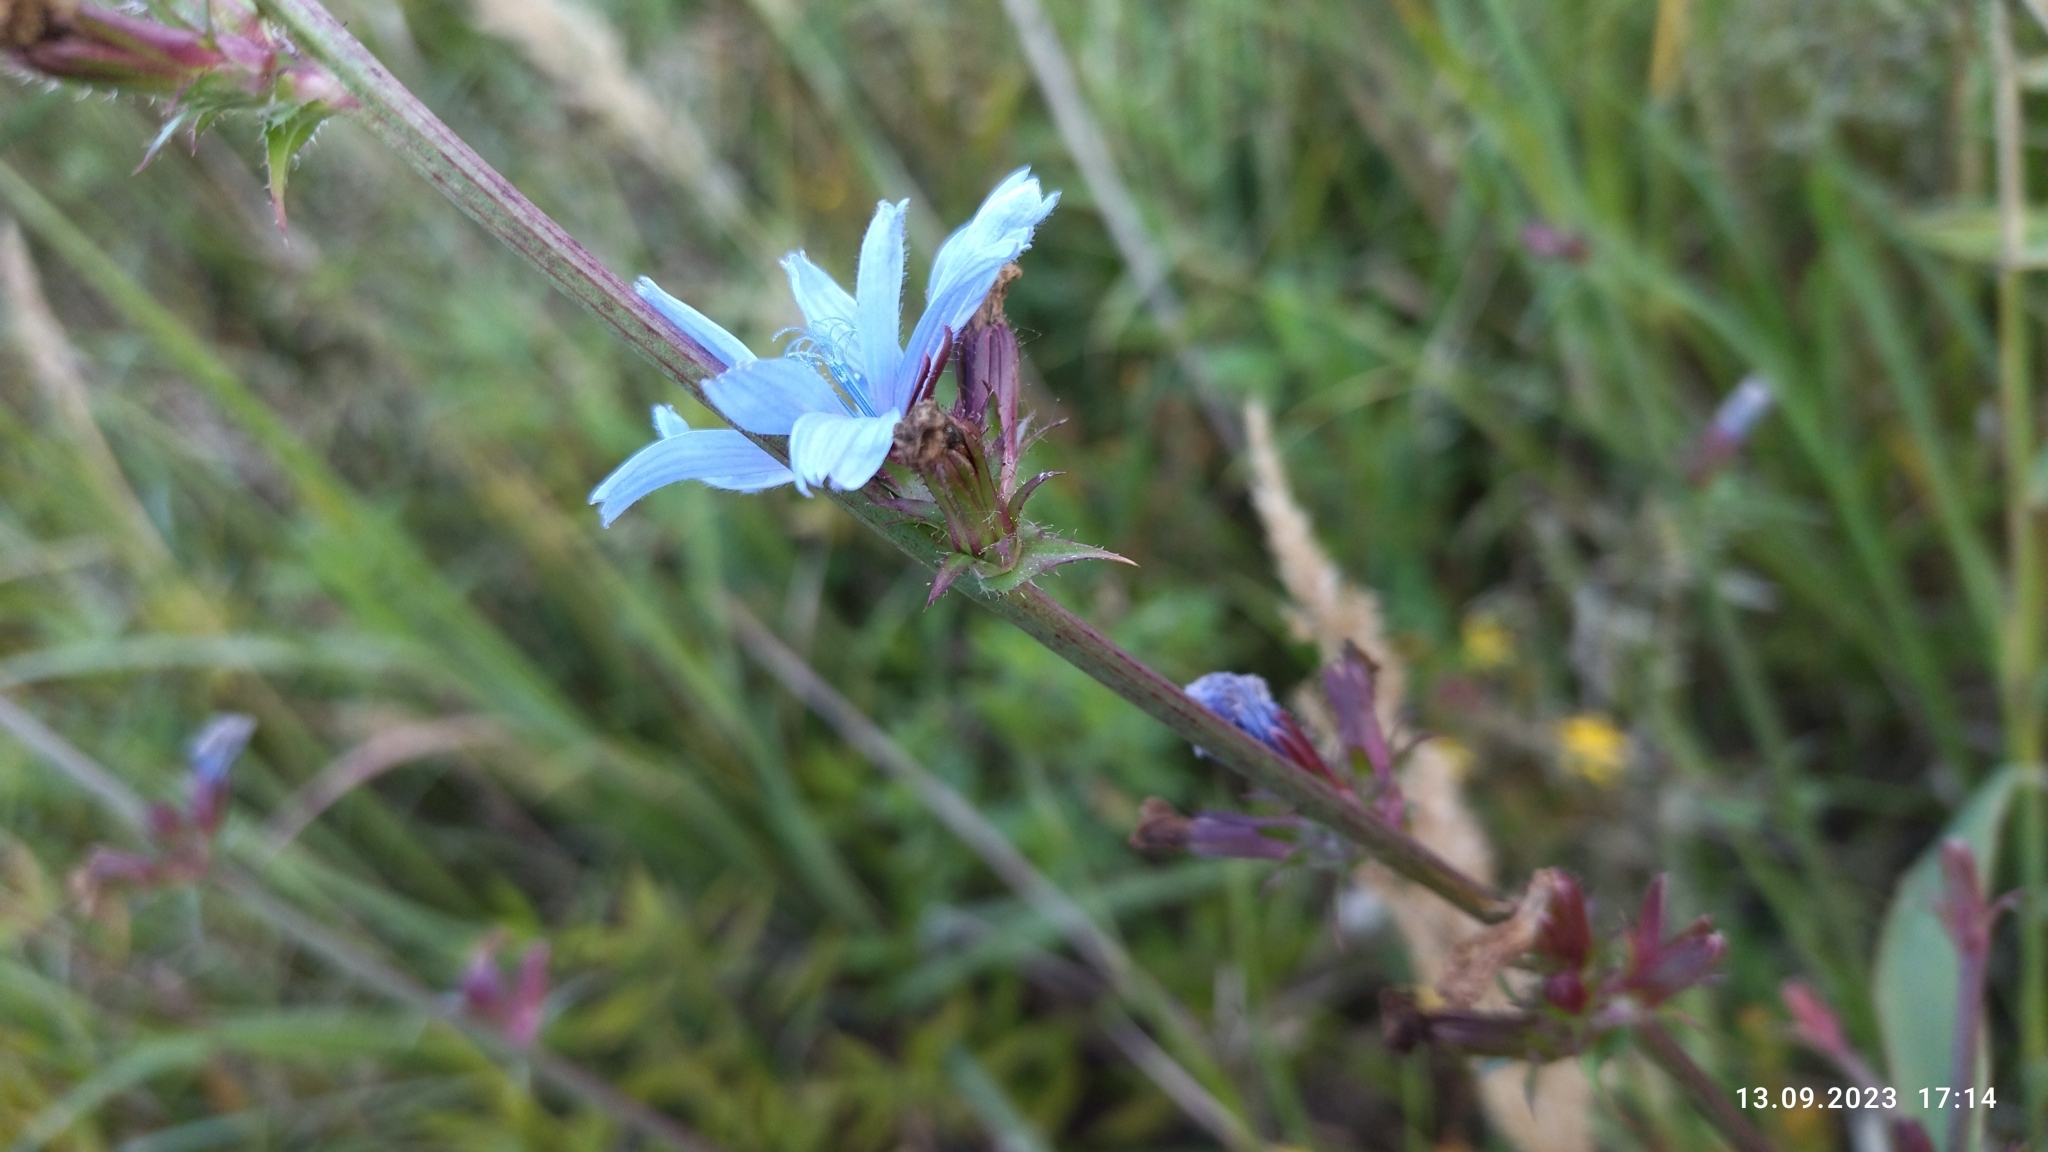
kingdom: Plantae
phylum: Tracheophyta
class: Magnoliopsida
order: Asterales
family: Asteraceae
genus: Cichorium
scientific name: Cichorium intybus
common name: Chicory
